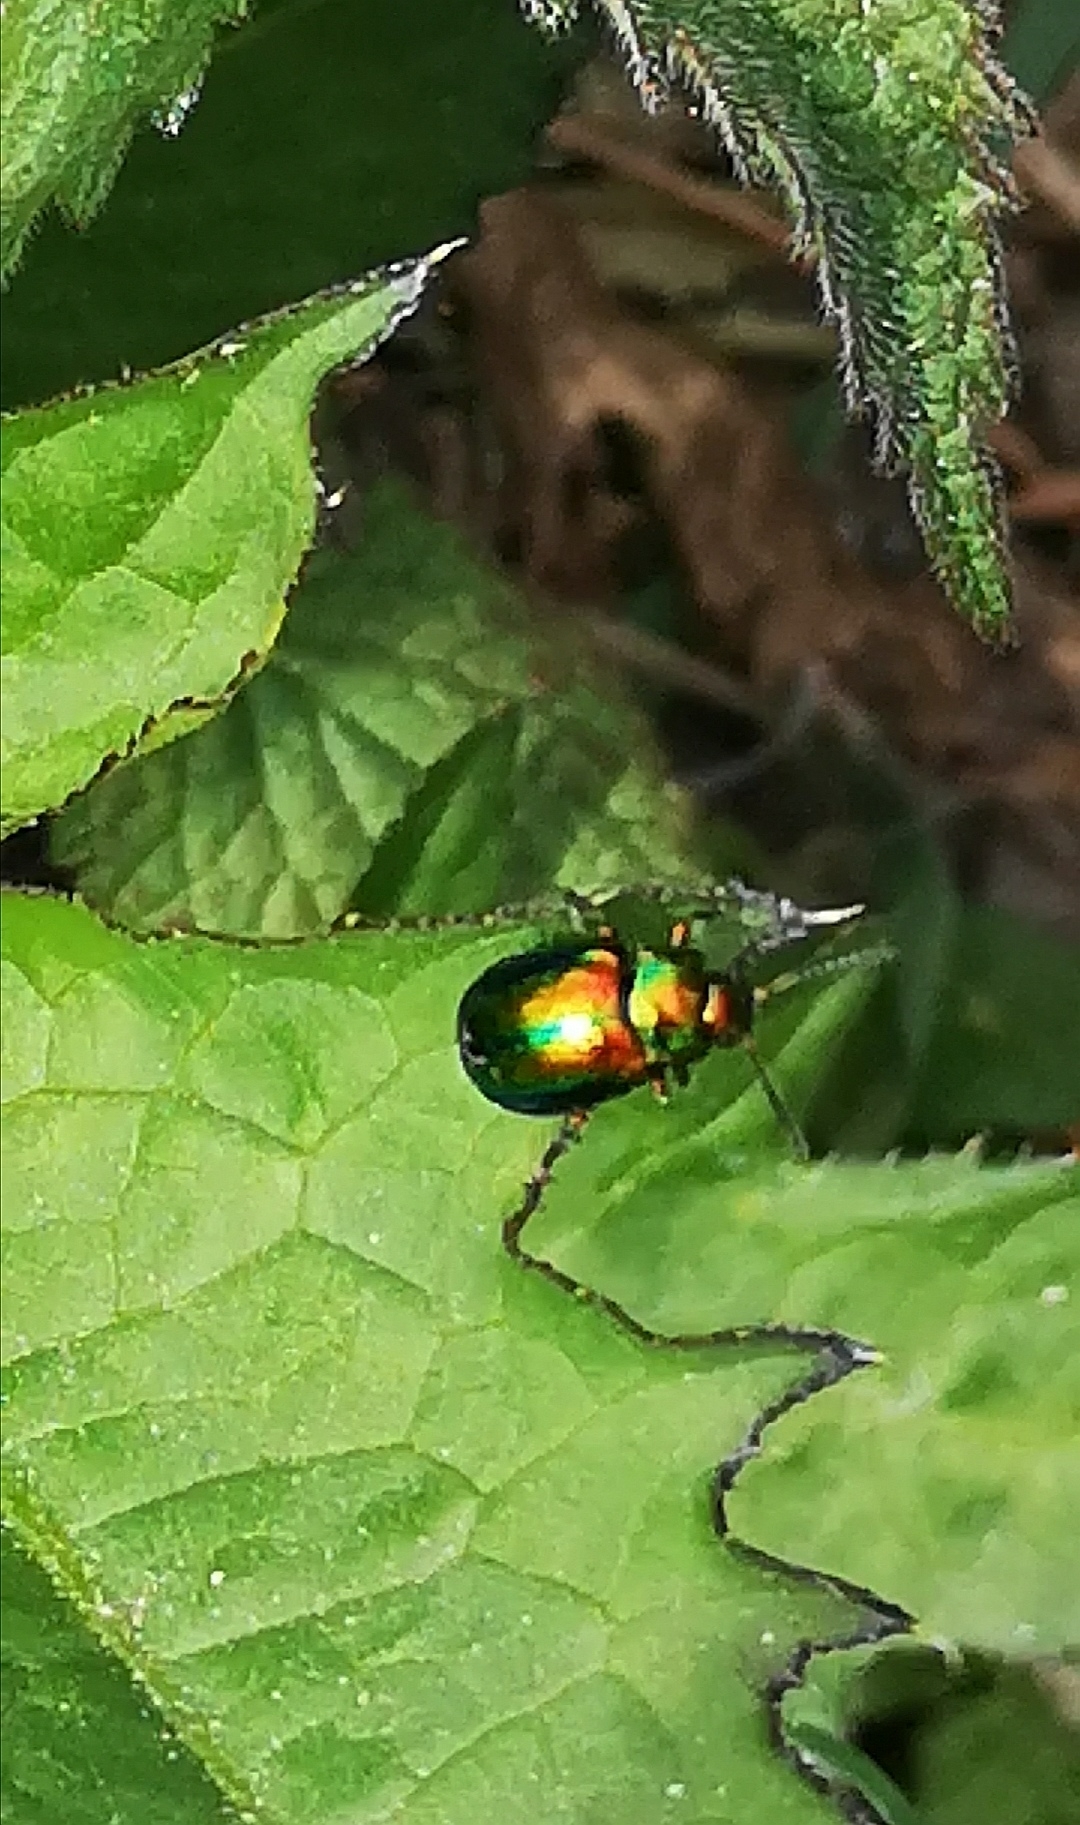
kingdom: Animalia
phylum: Arthropoda
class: Insecta
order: Coleoptera
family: Chrysomelidae
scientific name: Chrysomelidae
